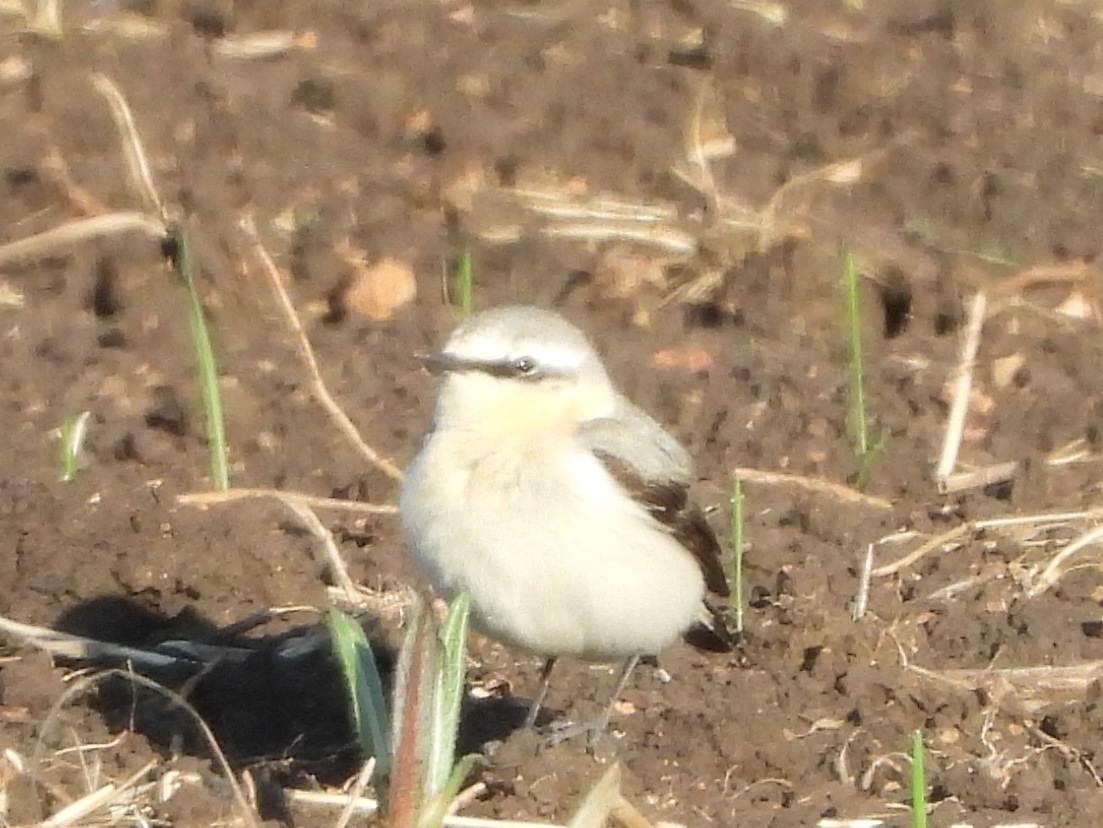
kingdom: Animalia
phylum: Chordata
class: Aves
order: Passeriformes
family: Muscicapidae
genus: Oenanthe
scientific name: Oenanthe oenanthe
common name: Northern wheatear
